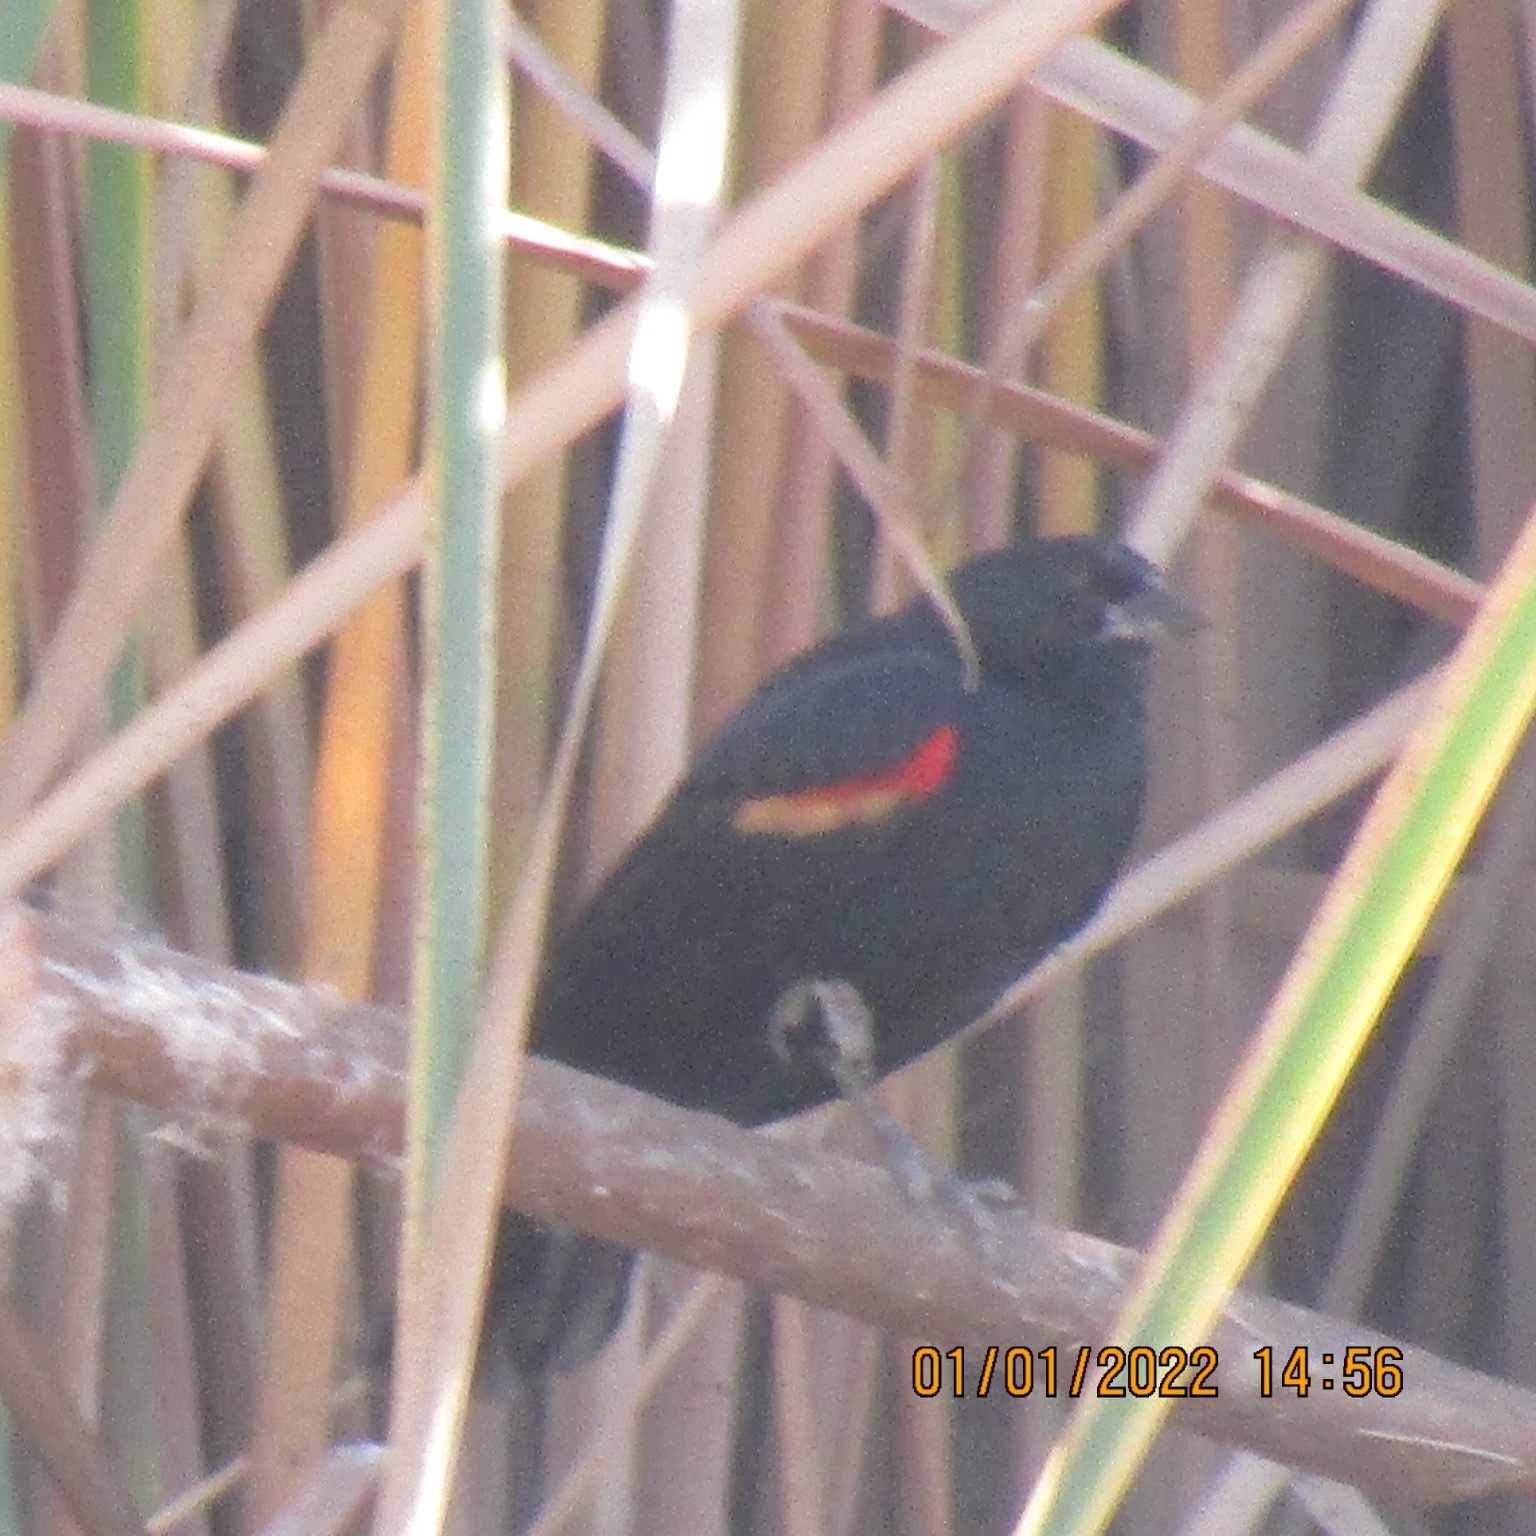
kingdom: Animalia
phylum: Chordata
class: Aves
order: Passeriformes
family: Icteridae
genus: Agelaius
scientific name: Agelaius phoeniceus
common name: Red-winged blackbird
